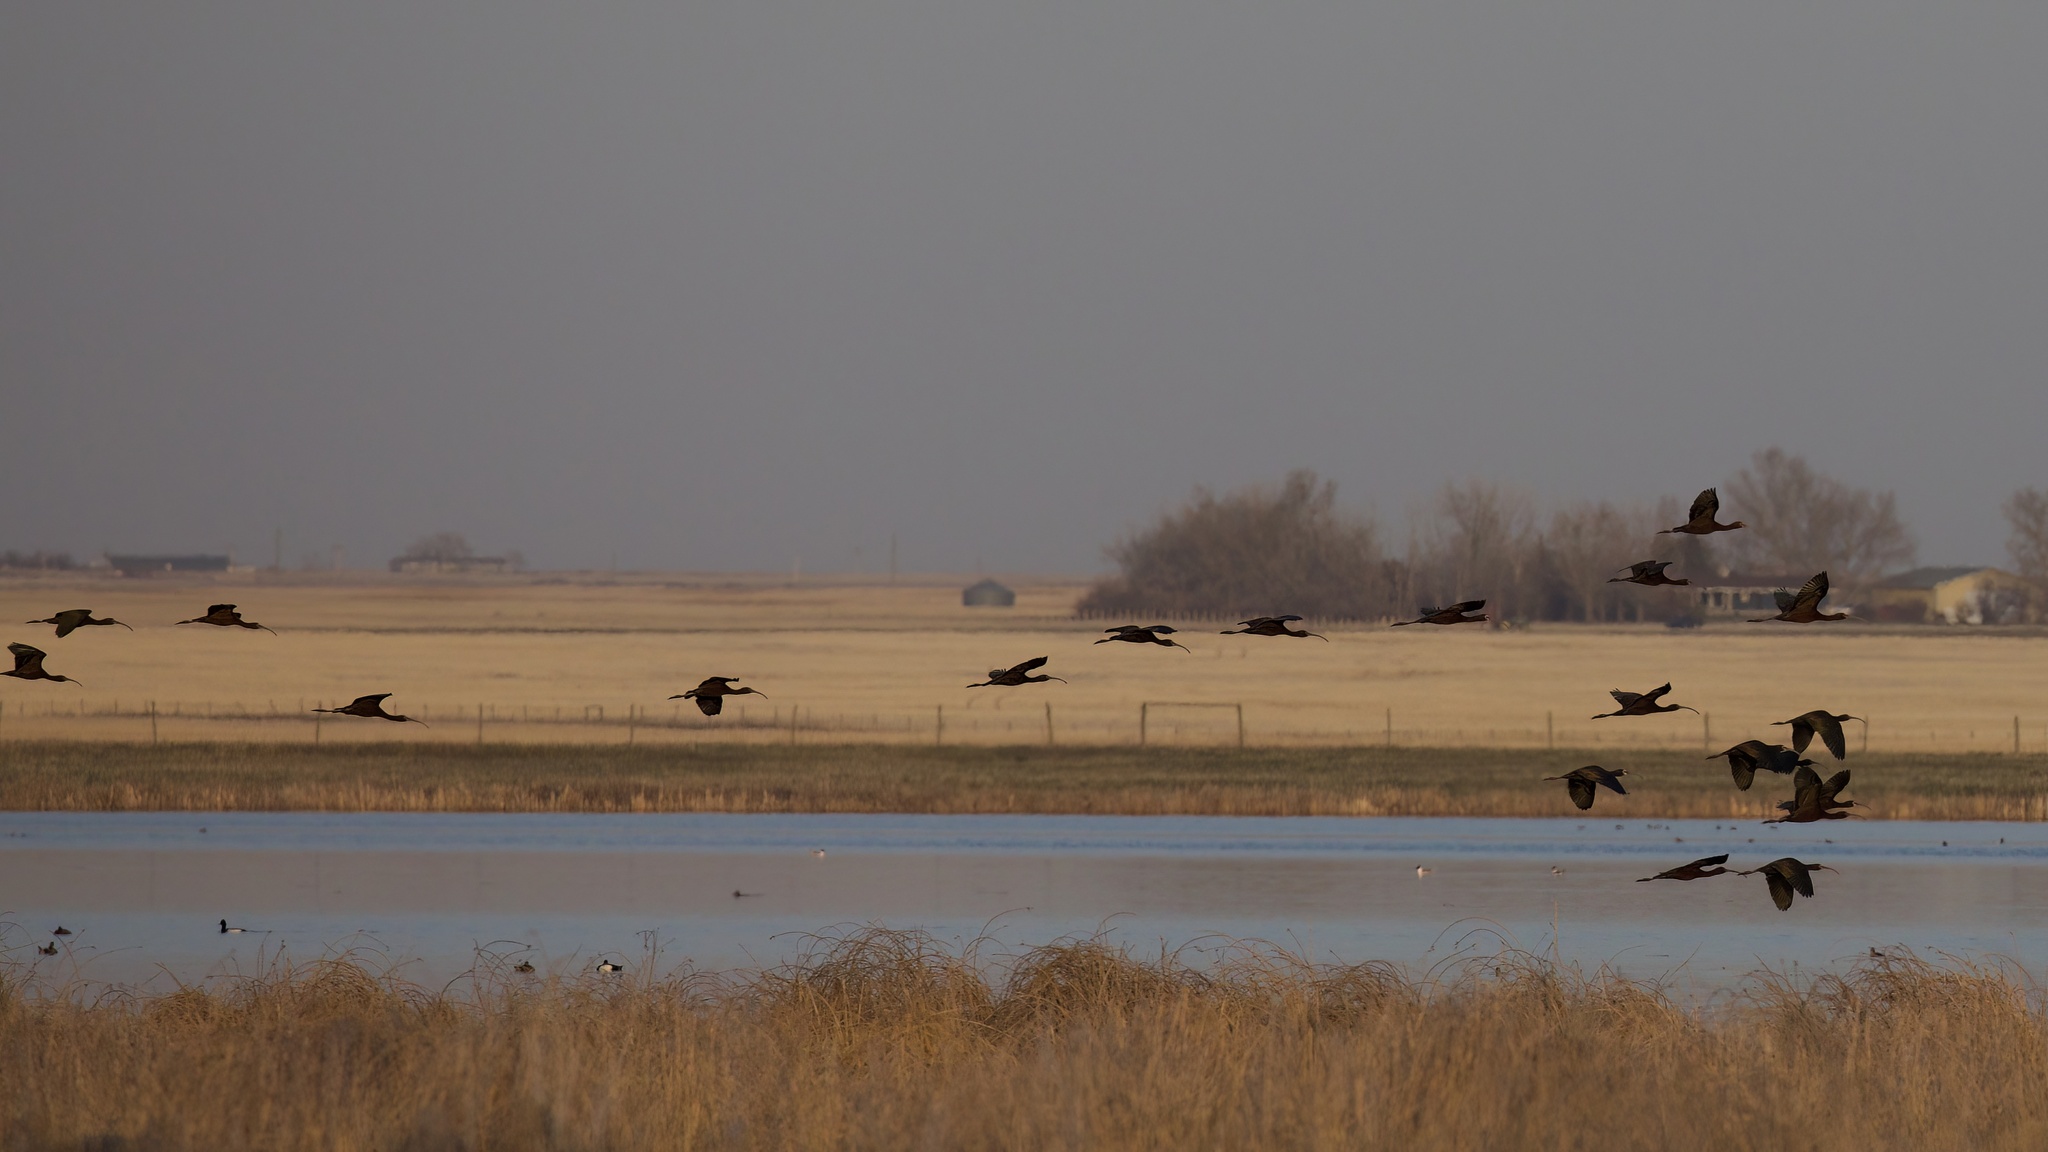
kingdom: Animalia
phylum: Chordata
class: Aves
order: Pelecaniformes
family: Threskiornithidae
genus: Plegadis
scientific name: Plegadis chihi
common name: White-faced ibis
